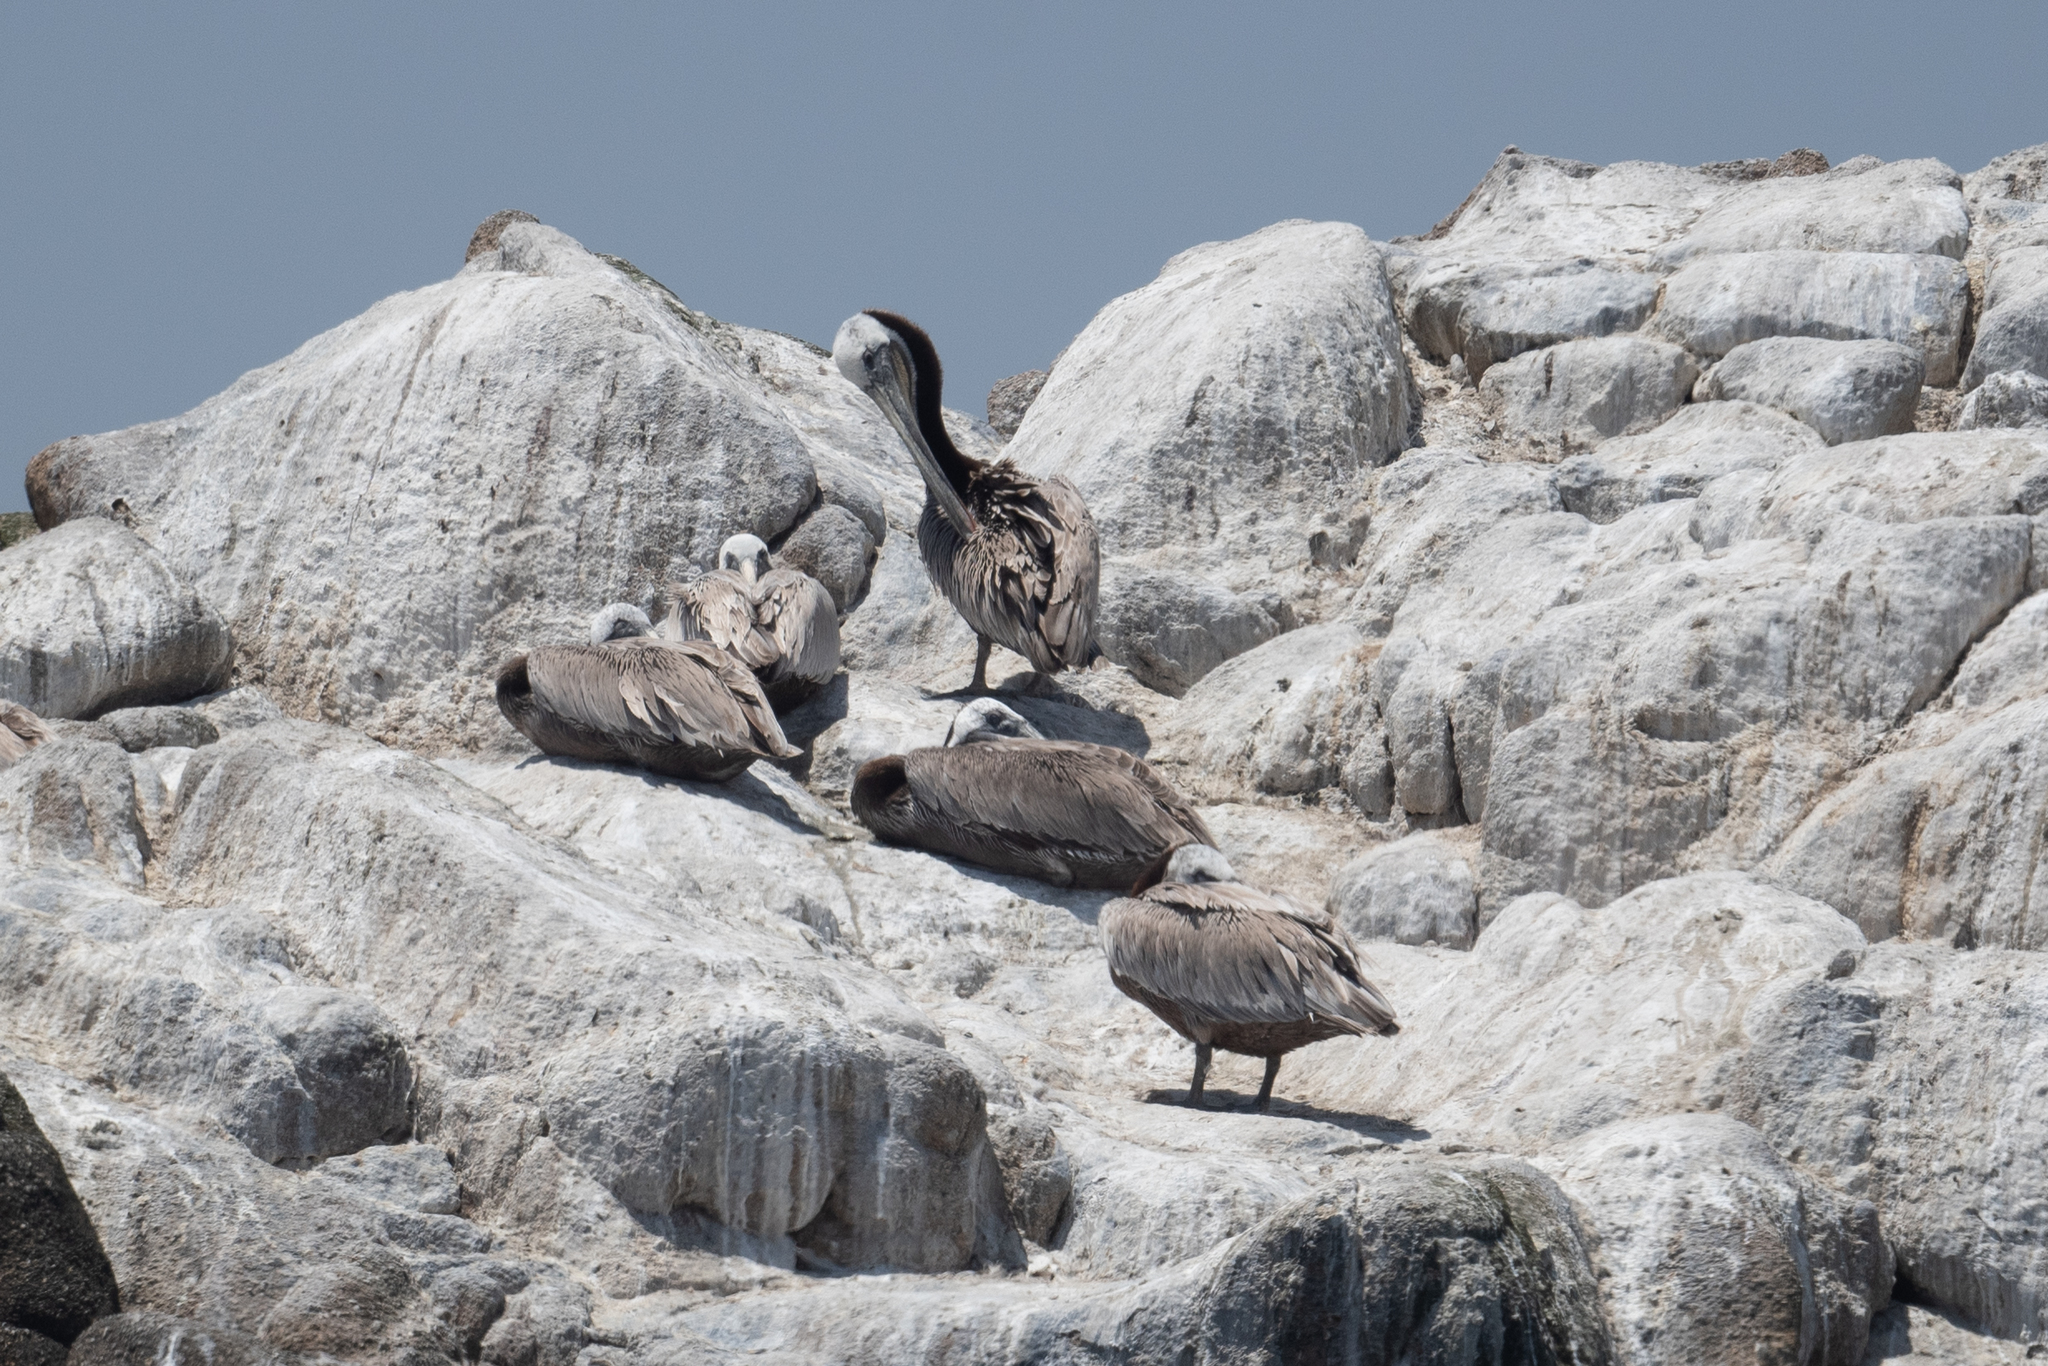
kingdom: Animalia
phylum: Chordata
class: Aves
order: Pelecaniformes
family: Pelecanidae
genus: Pelecanus
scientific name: Pelecanus occidentalis
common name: Brown pelican
